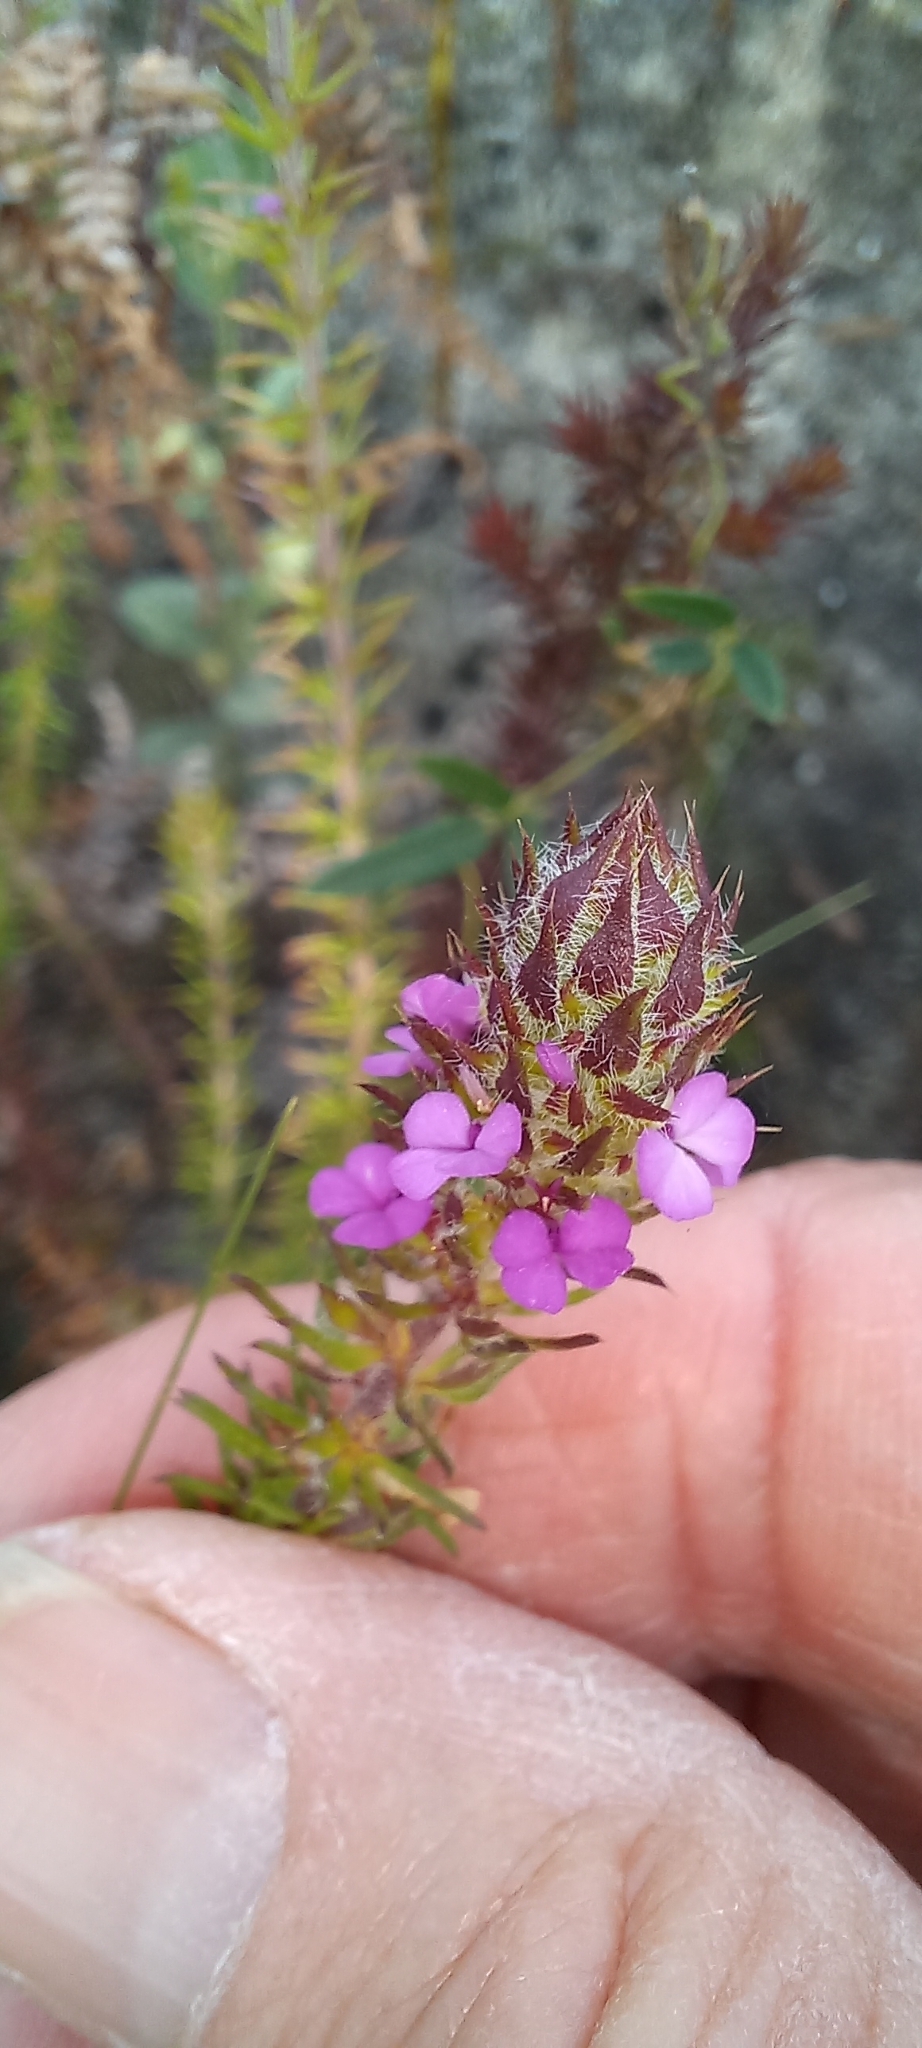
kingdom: Plantae
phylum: Tracheophyta
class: Magnoliopsida
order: Fabales
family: Polygalaceae
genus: Muraltia
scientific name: Muraltia alopecuroides
